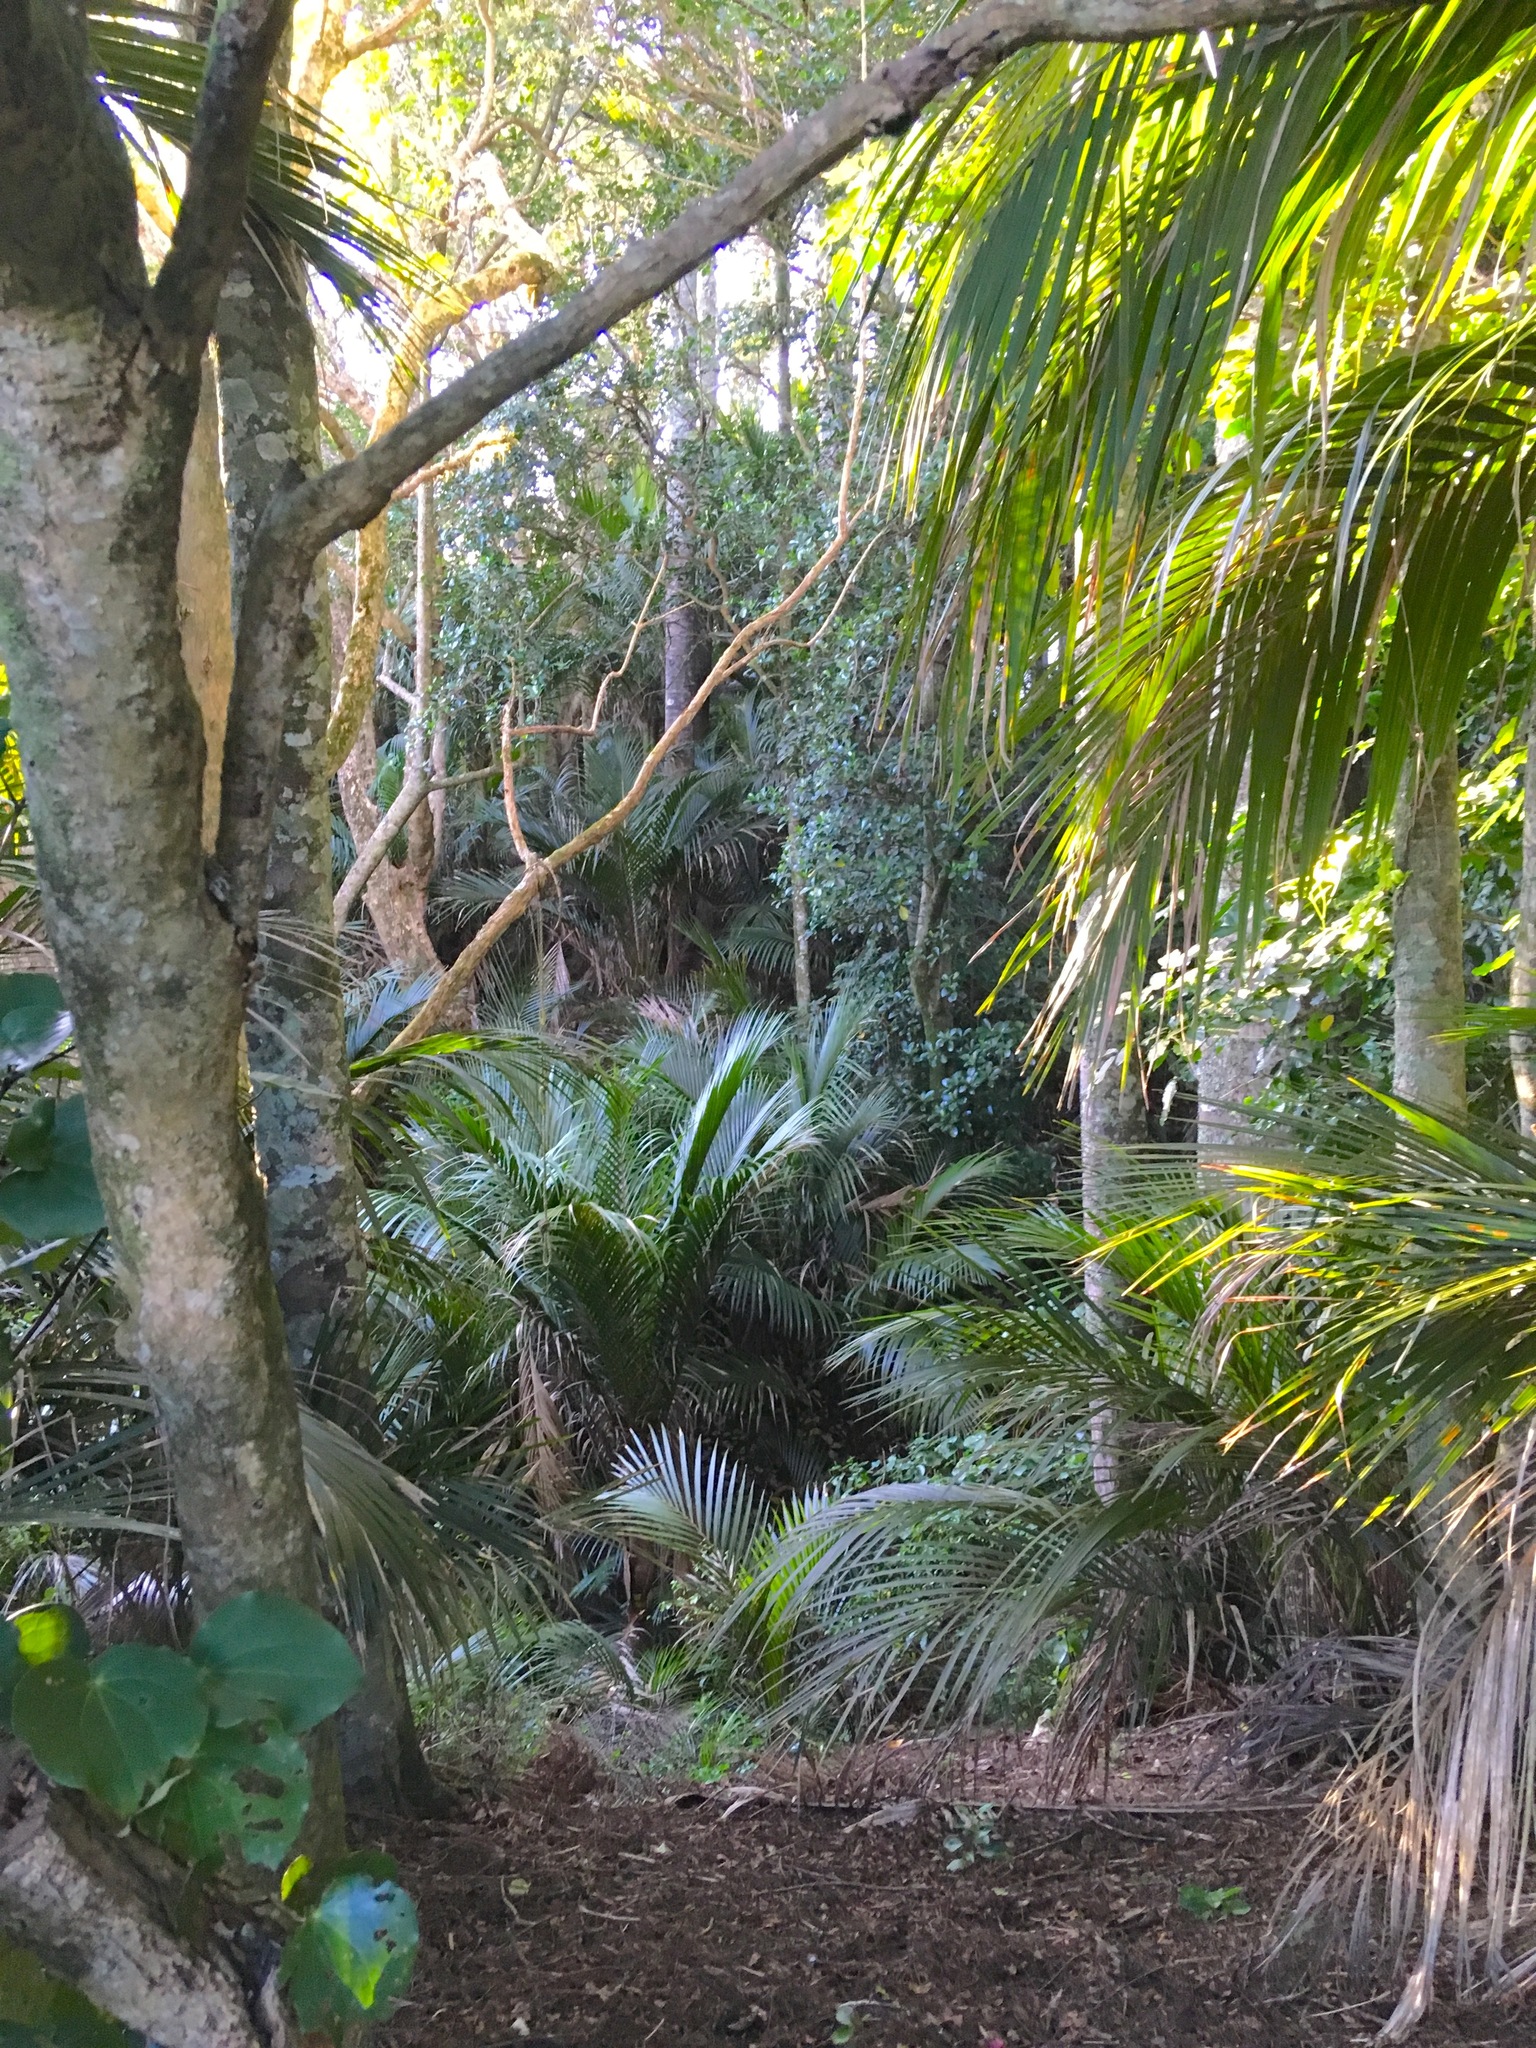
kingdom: Plantae
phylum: Tracheophyta
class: Pinopsida
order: Pinales
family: Podocarpaceae
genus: Dacrycarpus
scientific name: Dacrycarpus dacrydioides
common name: White pine
